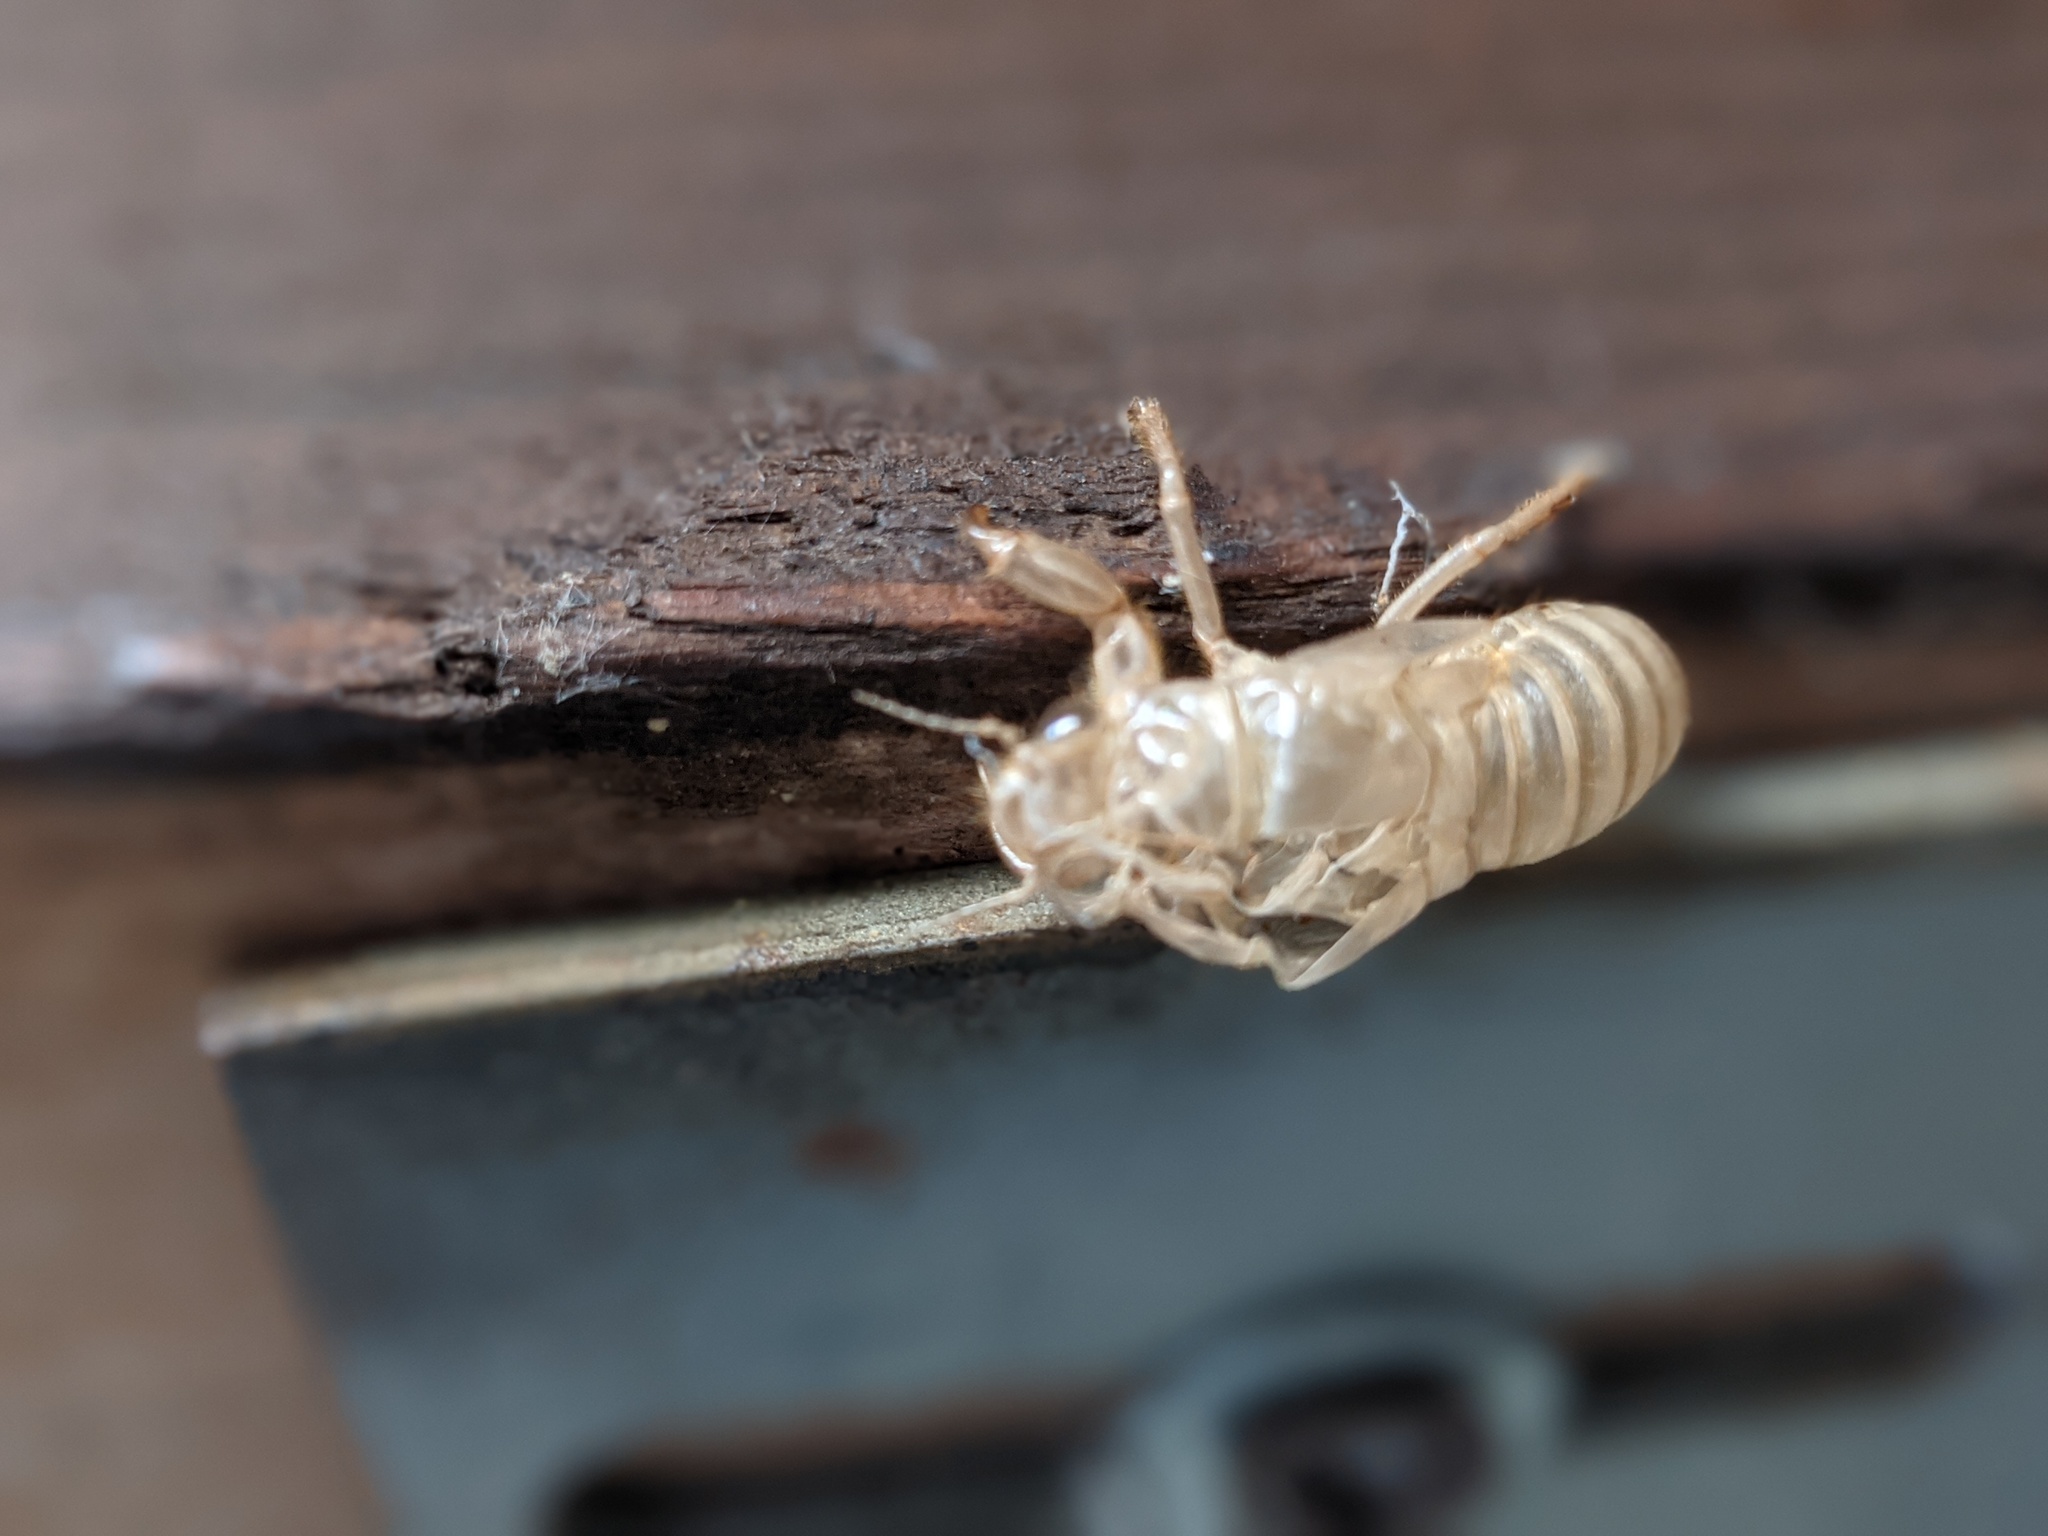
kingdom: Animalia
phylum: Arthropoda
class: Insecta
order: Hemiptera
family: Cicadidae
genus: Cicada
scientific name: Cicada orni
